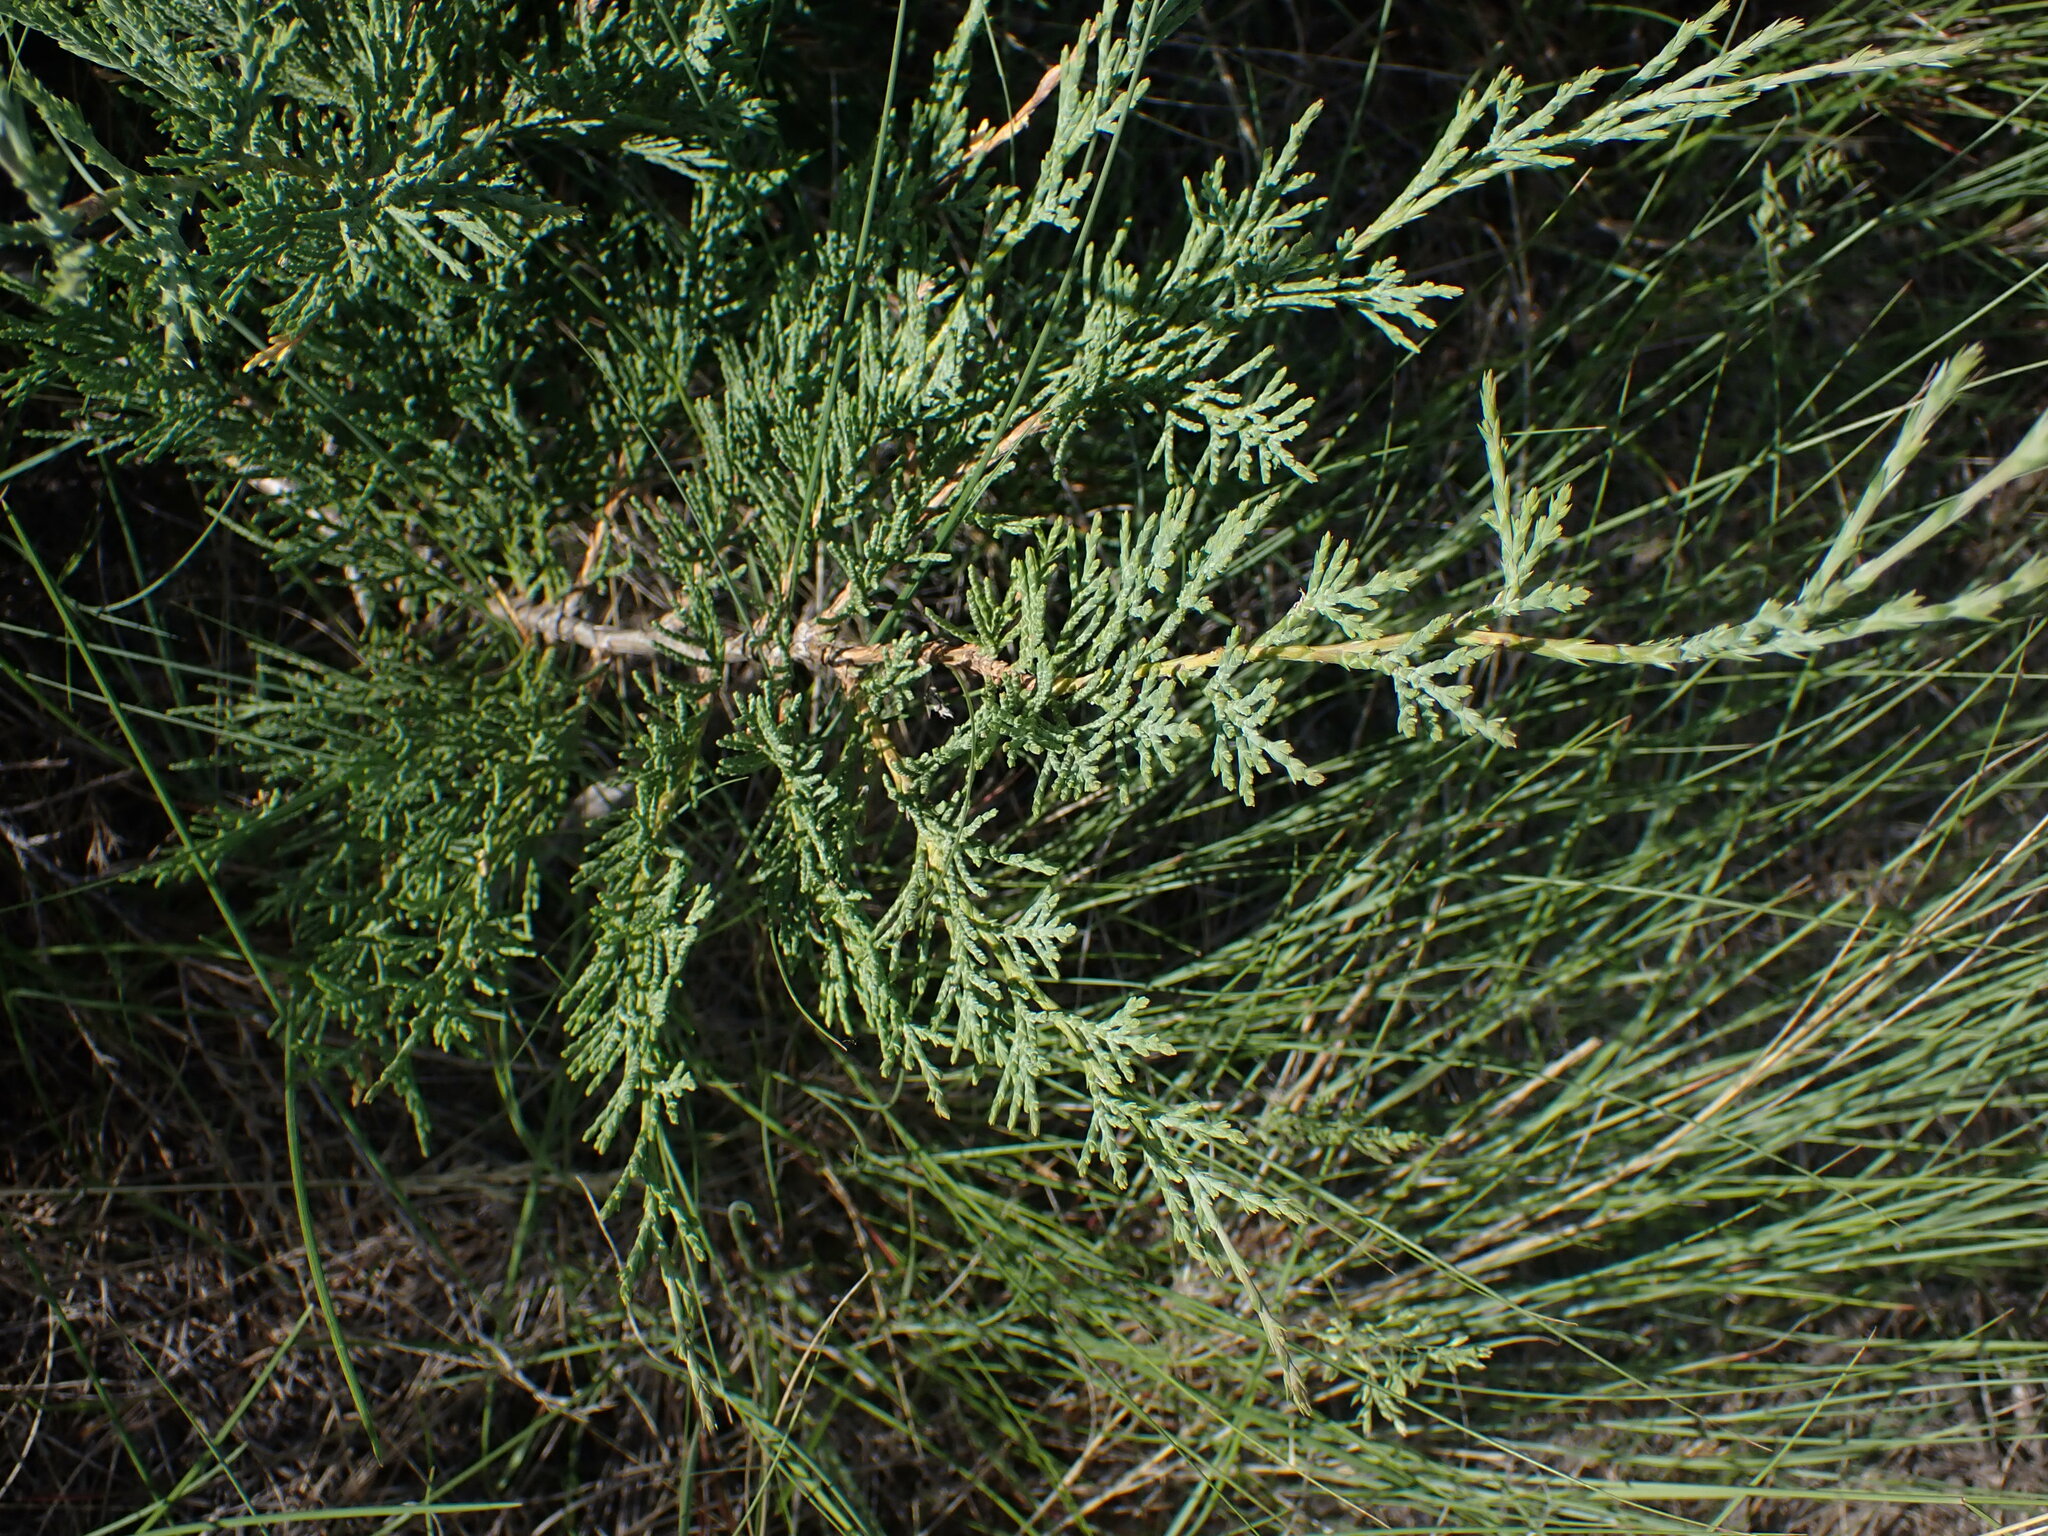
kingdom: Plantae
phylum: Tracheophyta
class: Pinopsida
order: Pinales
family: Cupressaceae
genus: Juniperus
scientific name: Juniperus scopulorum
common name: Rocky mountain juniper
